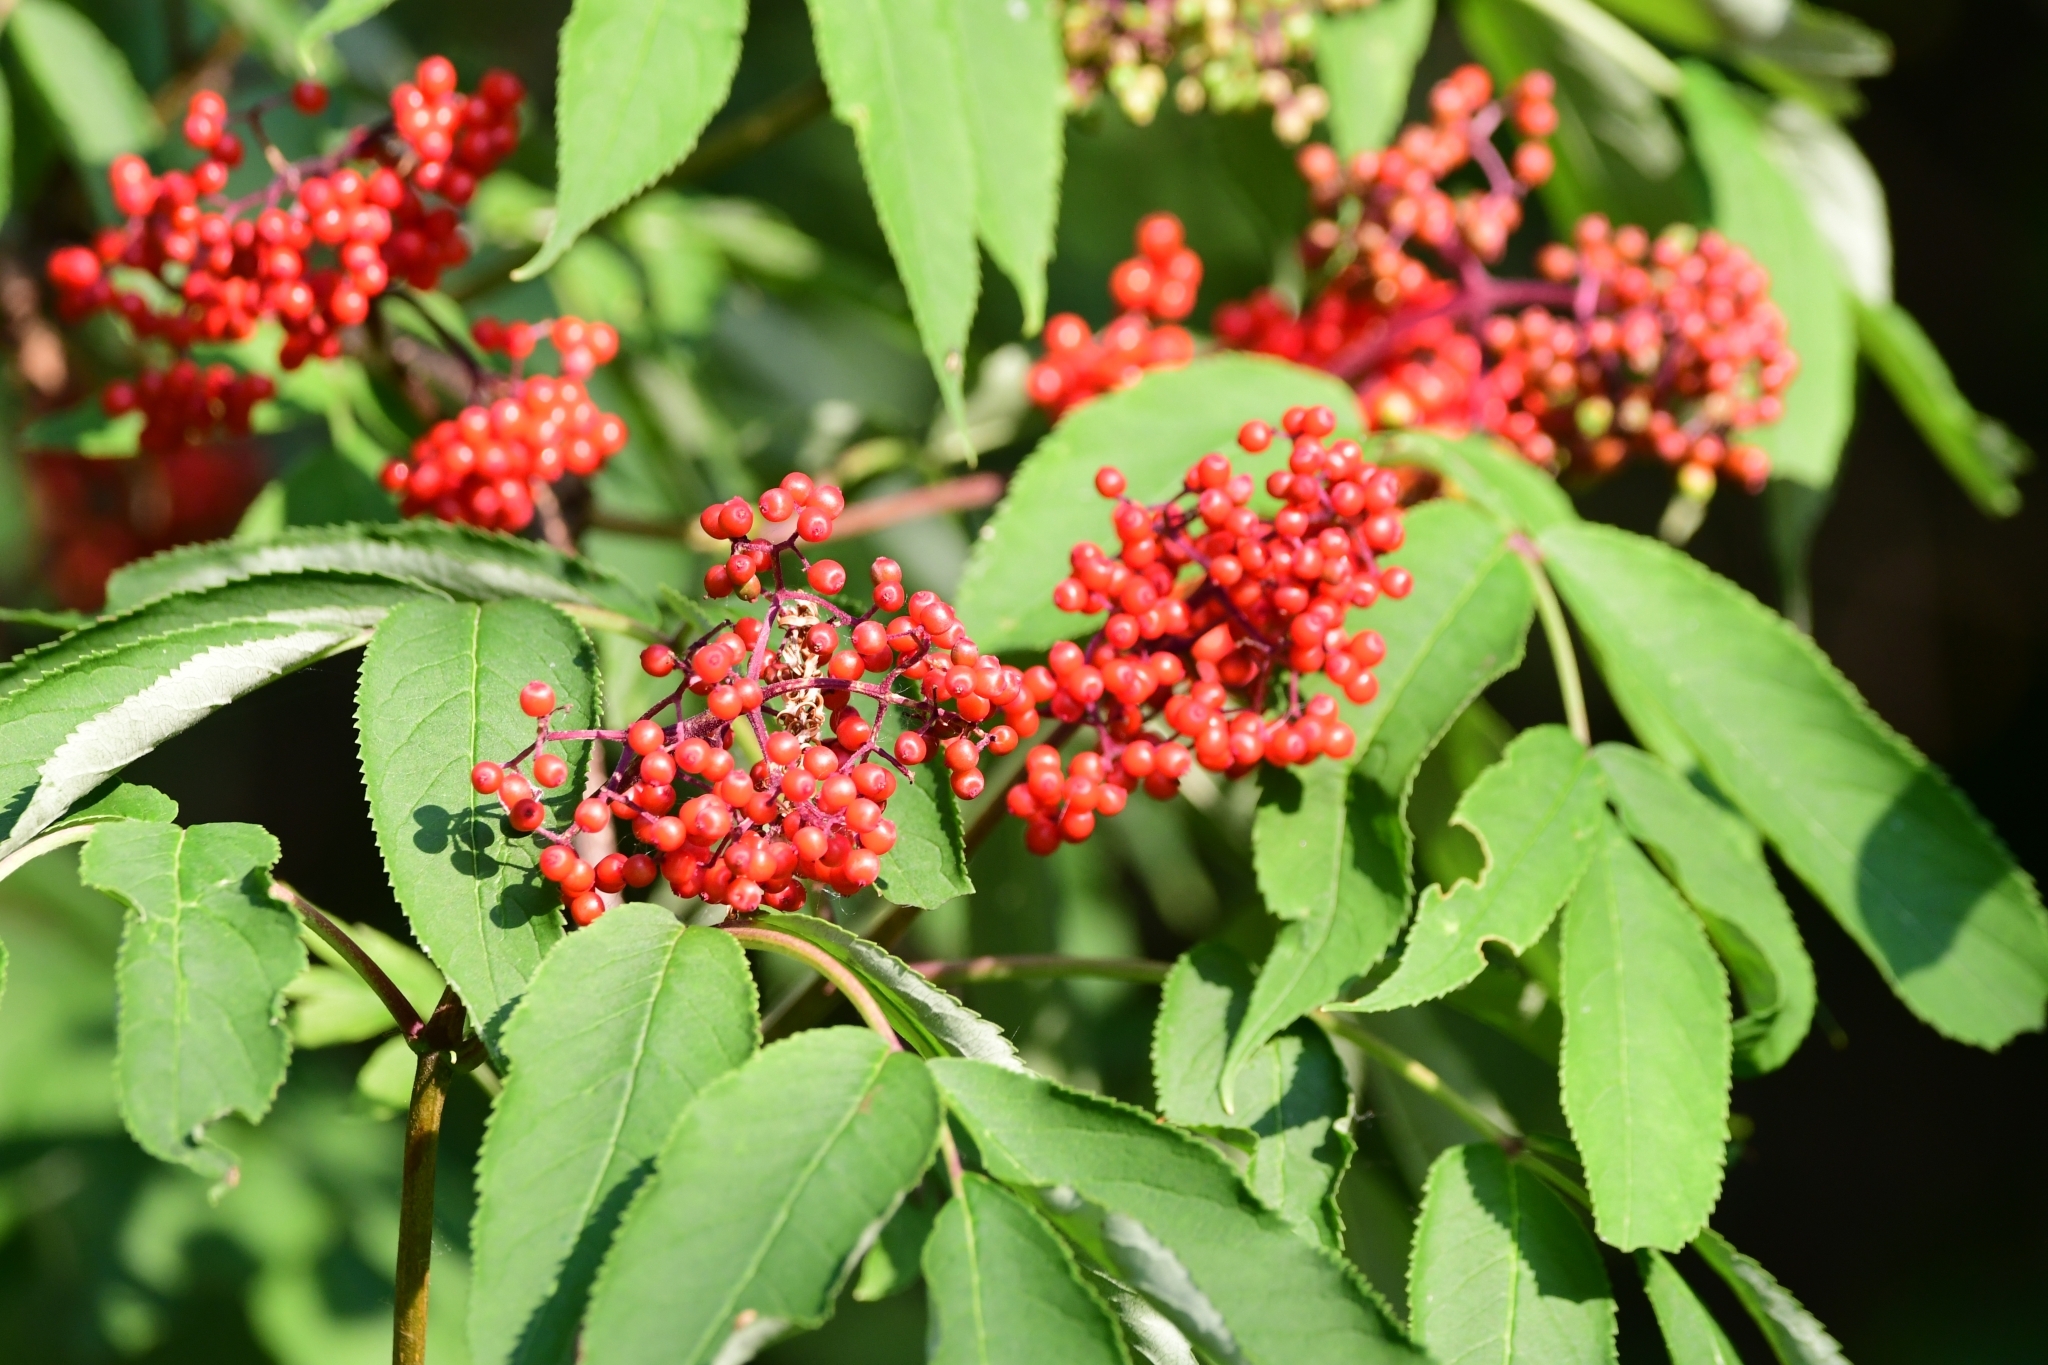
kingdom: Plantae
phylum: Tracheophyta
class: Magnoliopsida
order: Dipsacales
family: Viburnaceae
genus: Sambucus
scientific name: Sambucus racemosa
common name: Red-berried elder
